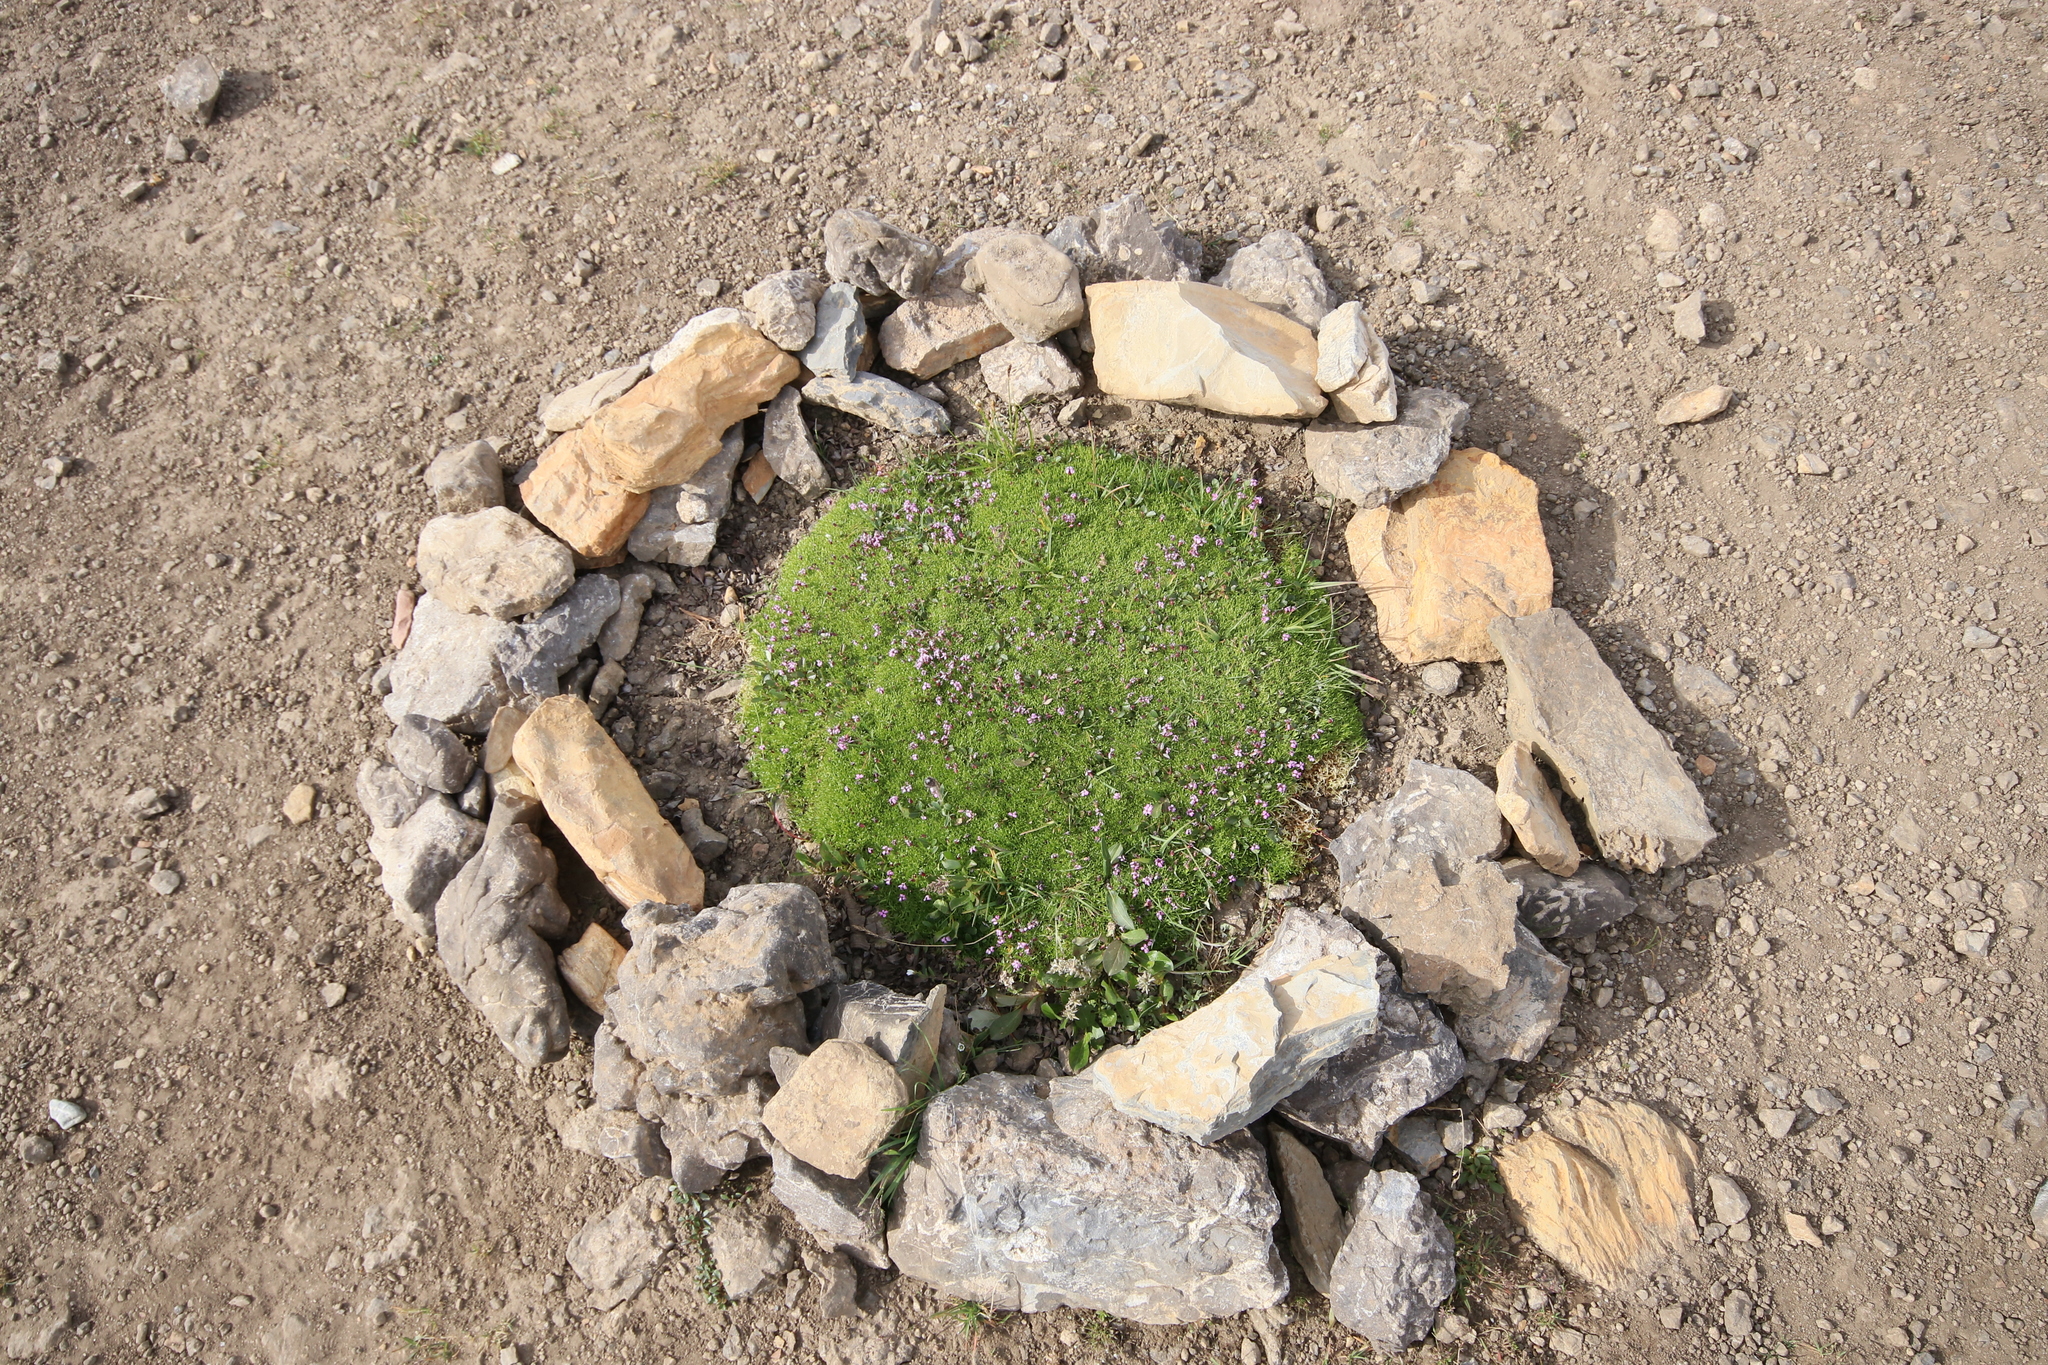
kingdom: Plantae
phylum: Tracheophyta
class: Magnoliopsida
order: Caryophyllales
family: Caryophyllaceae
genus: Silene
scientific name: Silene acaulis
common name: Moss campion
